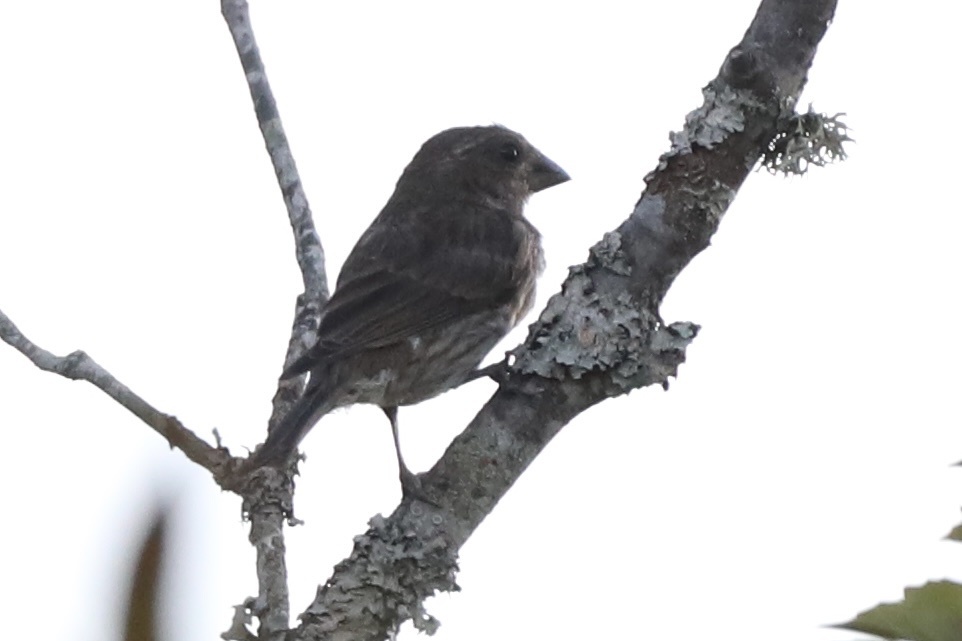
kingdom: Animalia
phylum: Chordata
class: Aves
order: Passeriformes
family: Fringillidae
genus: Haemorhous
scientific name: Haemorhous purpureus
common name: Purple finch
